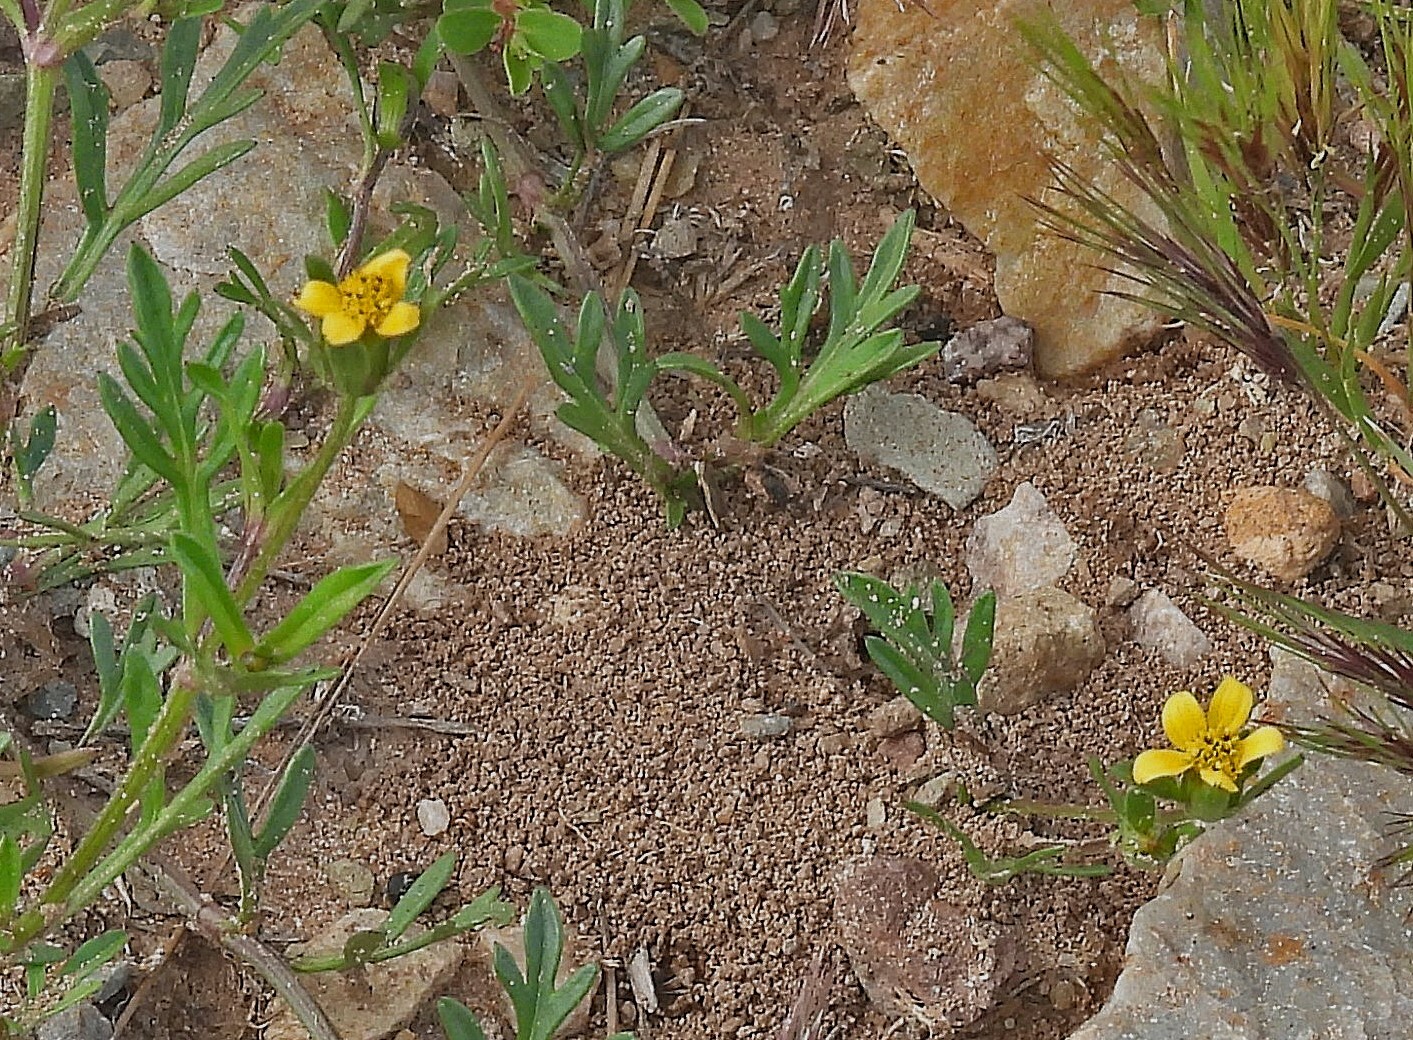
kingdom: Plantae
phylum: Tracheophyta
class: Magnoliopsida
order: Asterales
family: Asteraceae
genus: Heterosperma
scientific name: Heterosperma tenuisectum
